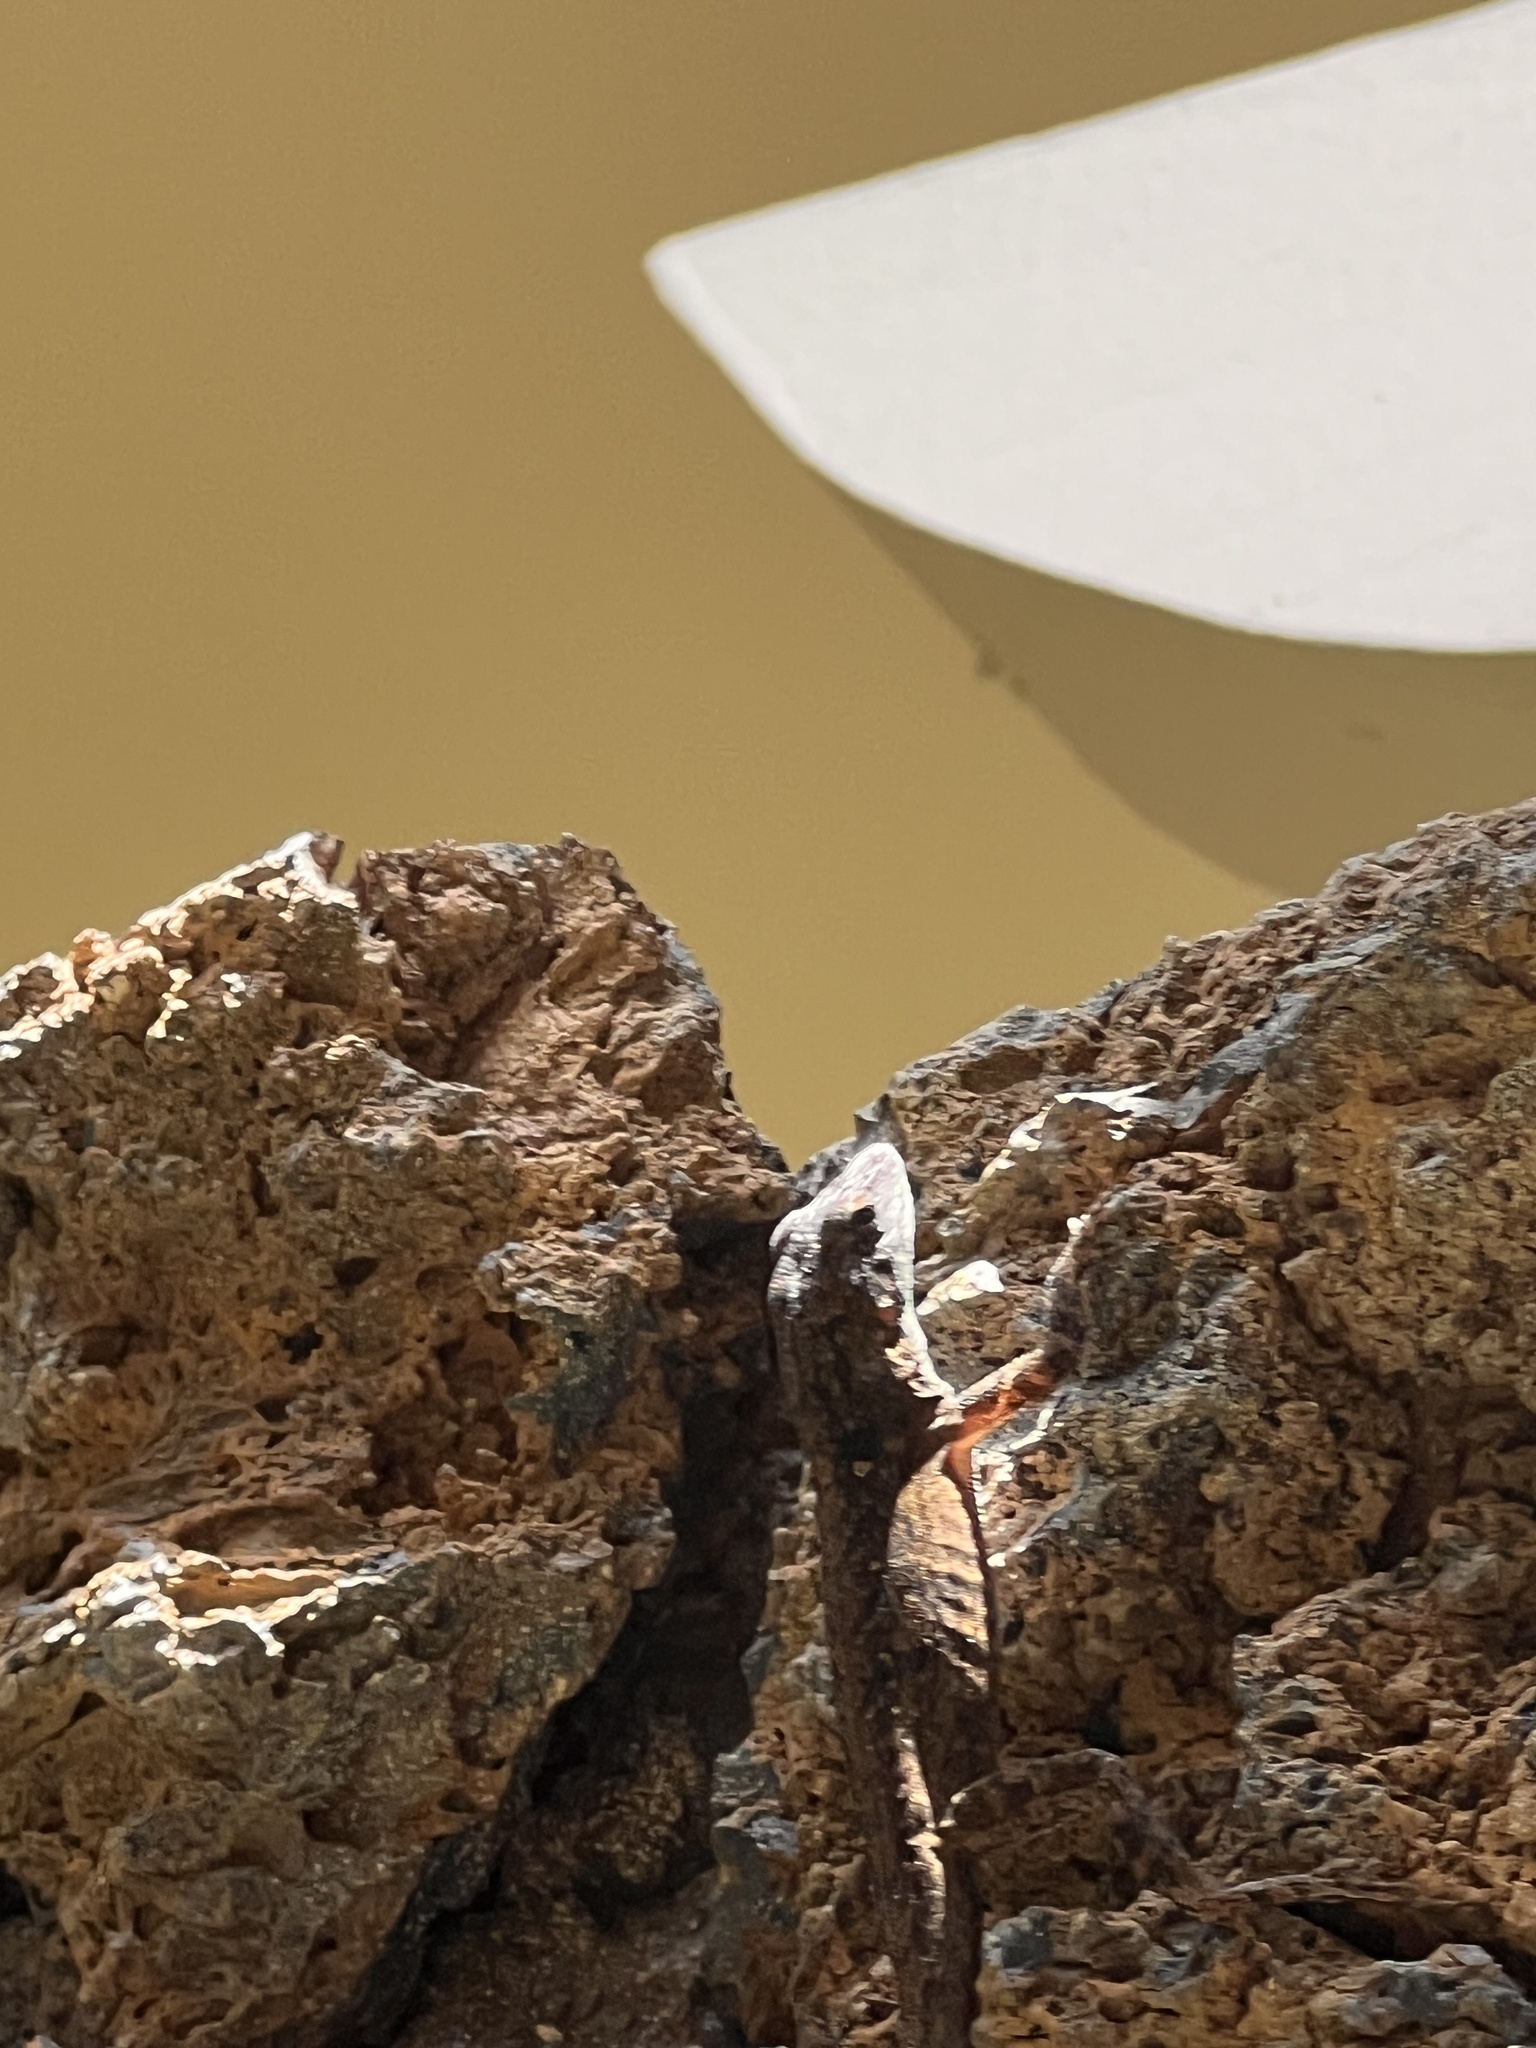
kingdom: Animalia
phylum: Chordata
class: Squamata
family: Dactyloidae
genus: Anolis
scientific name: Anolis sagrei
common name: Brown anole
